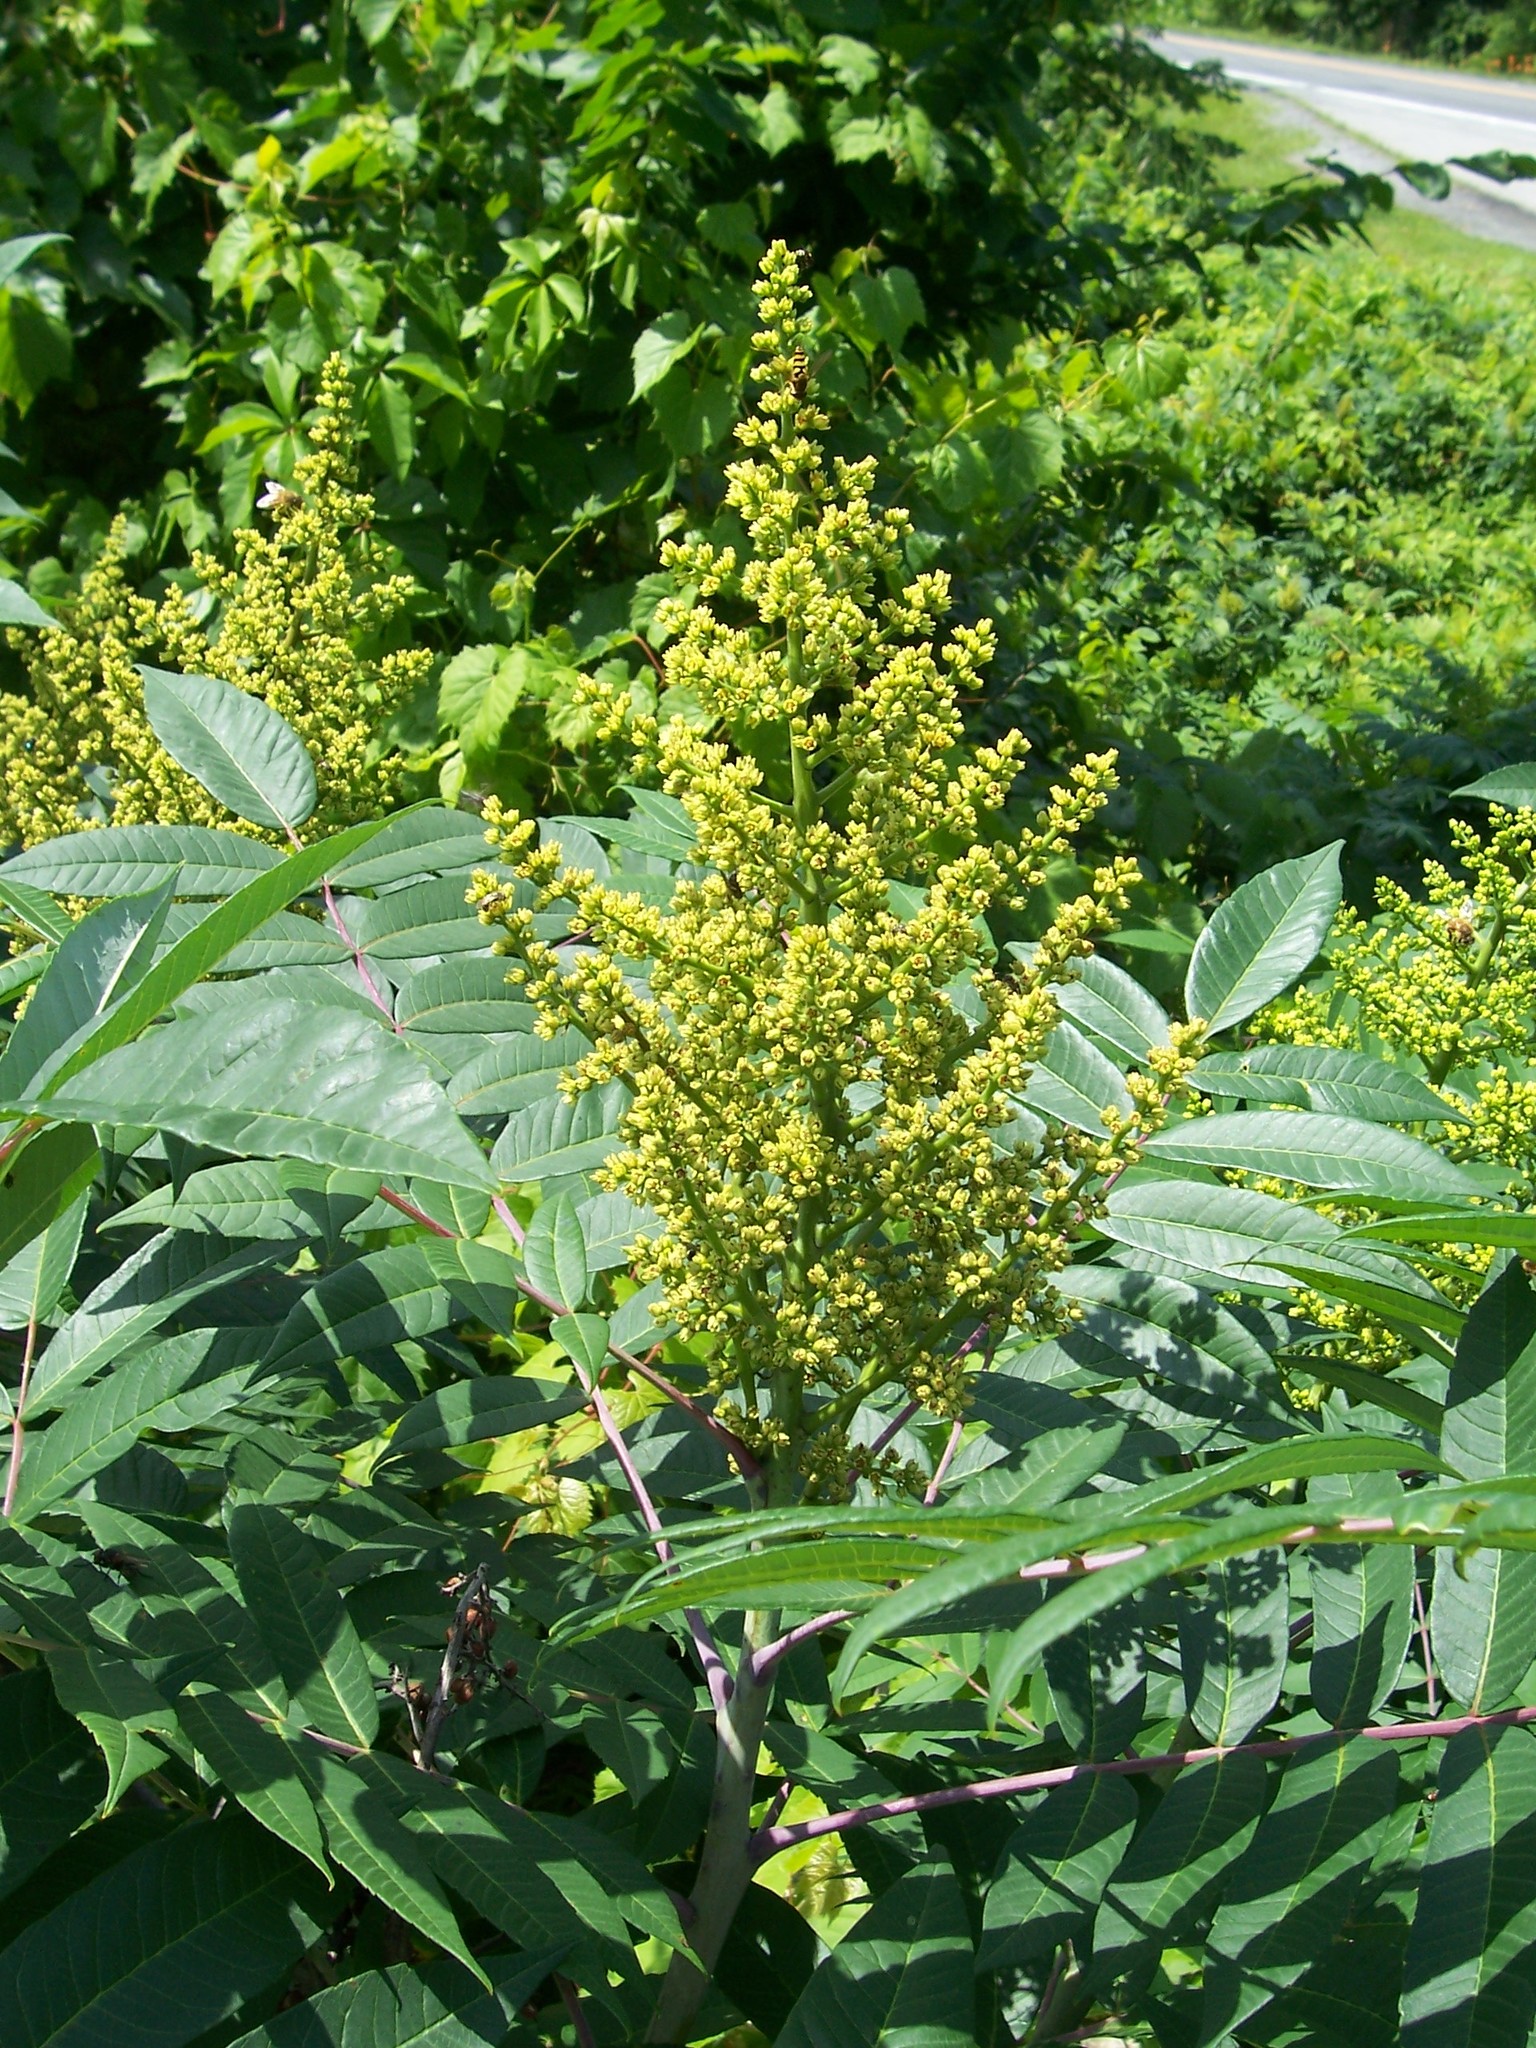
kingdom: Plantae
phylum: Tracheophyta
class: Magnoliopsida
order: Sapindales
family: Anacardiaceae
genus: Rhus
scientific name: Rhus glabra
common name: Scarlet sumac
